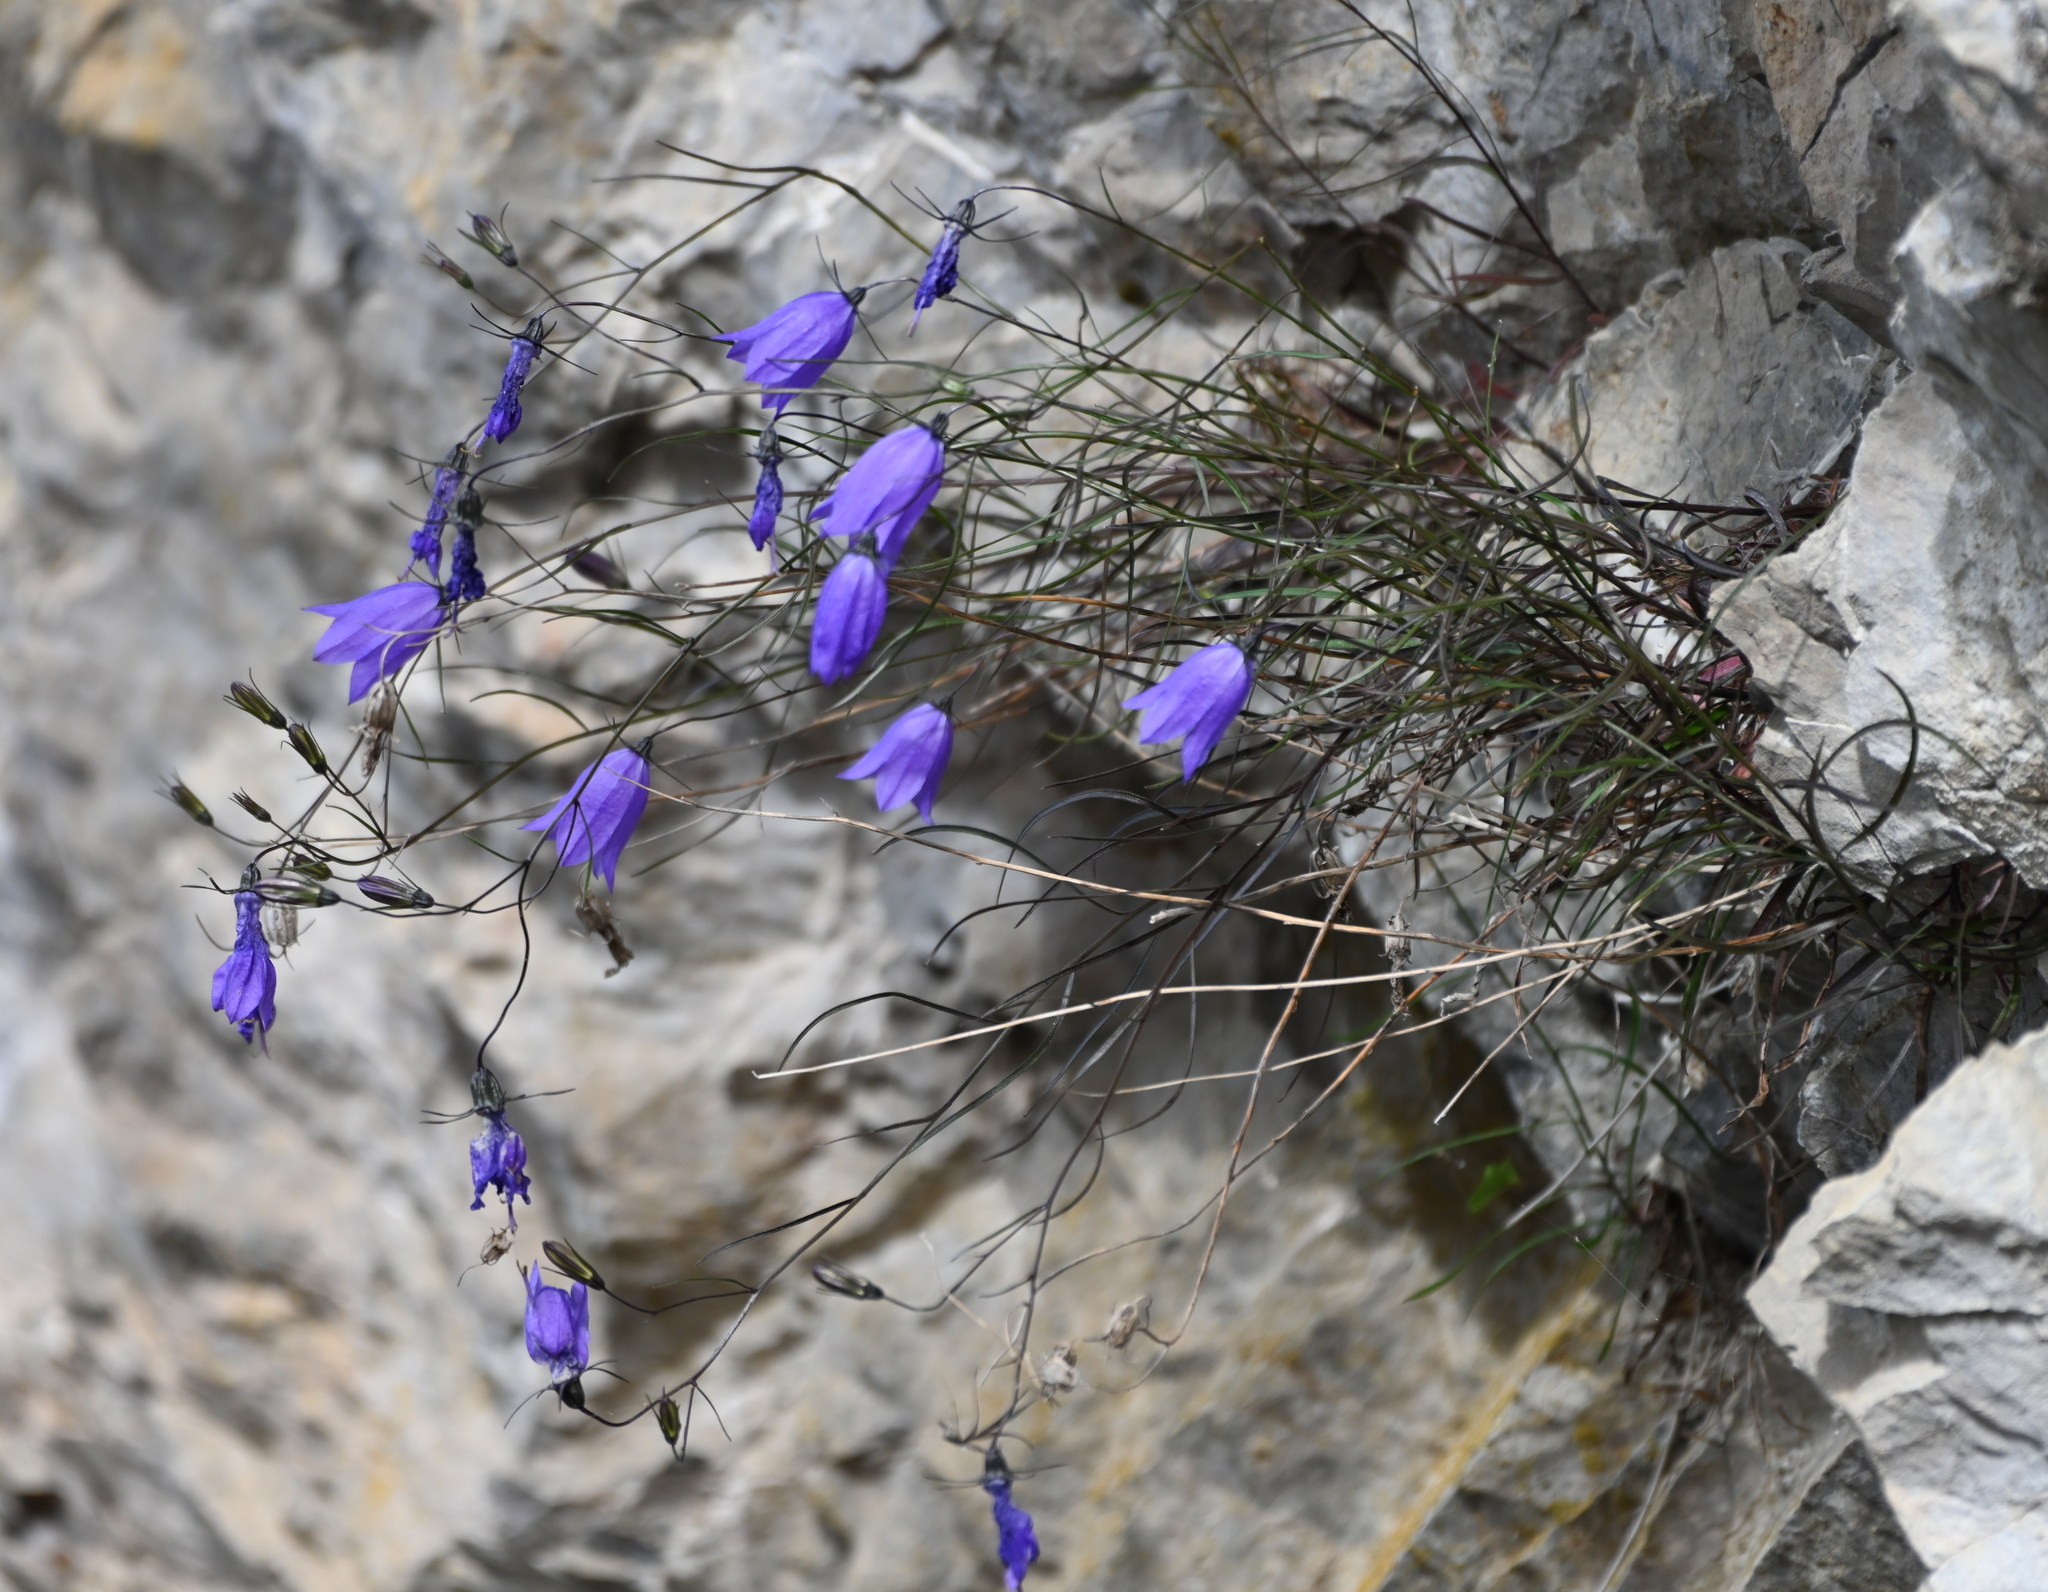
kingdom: Plantae
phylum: Tracheophyta
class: Magnoliopsida
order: Asterales
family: Campanulaceae
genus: Campanula
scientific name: Campanula alaskana
